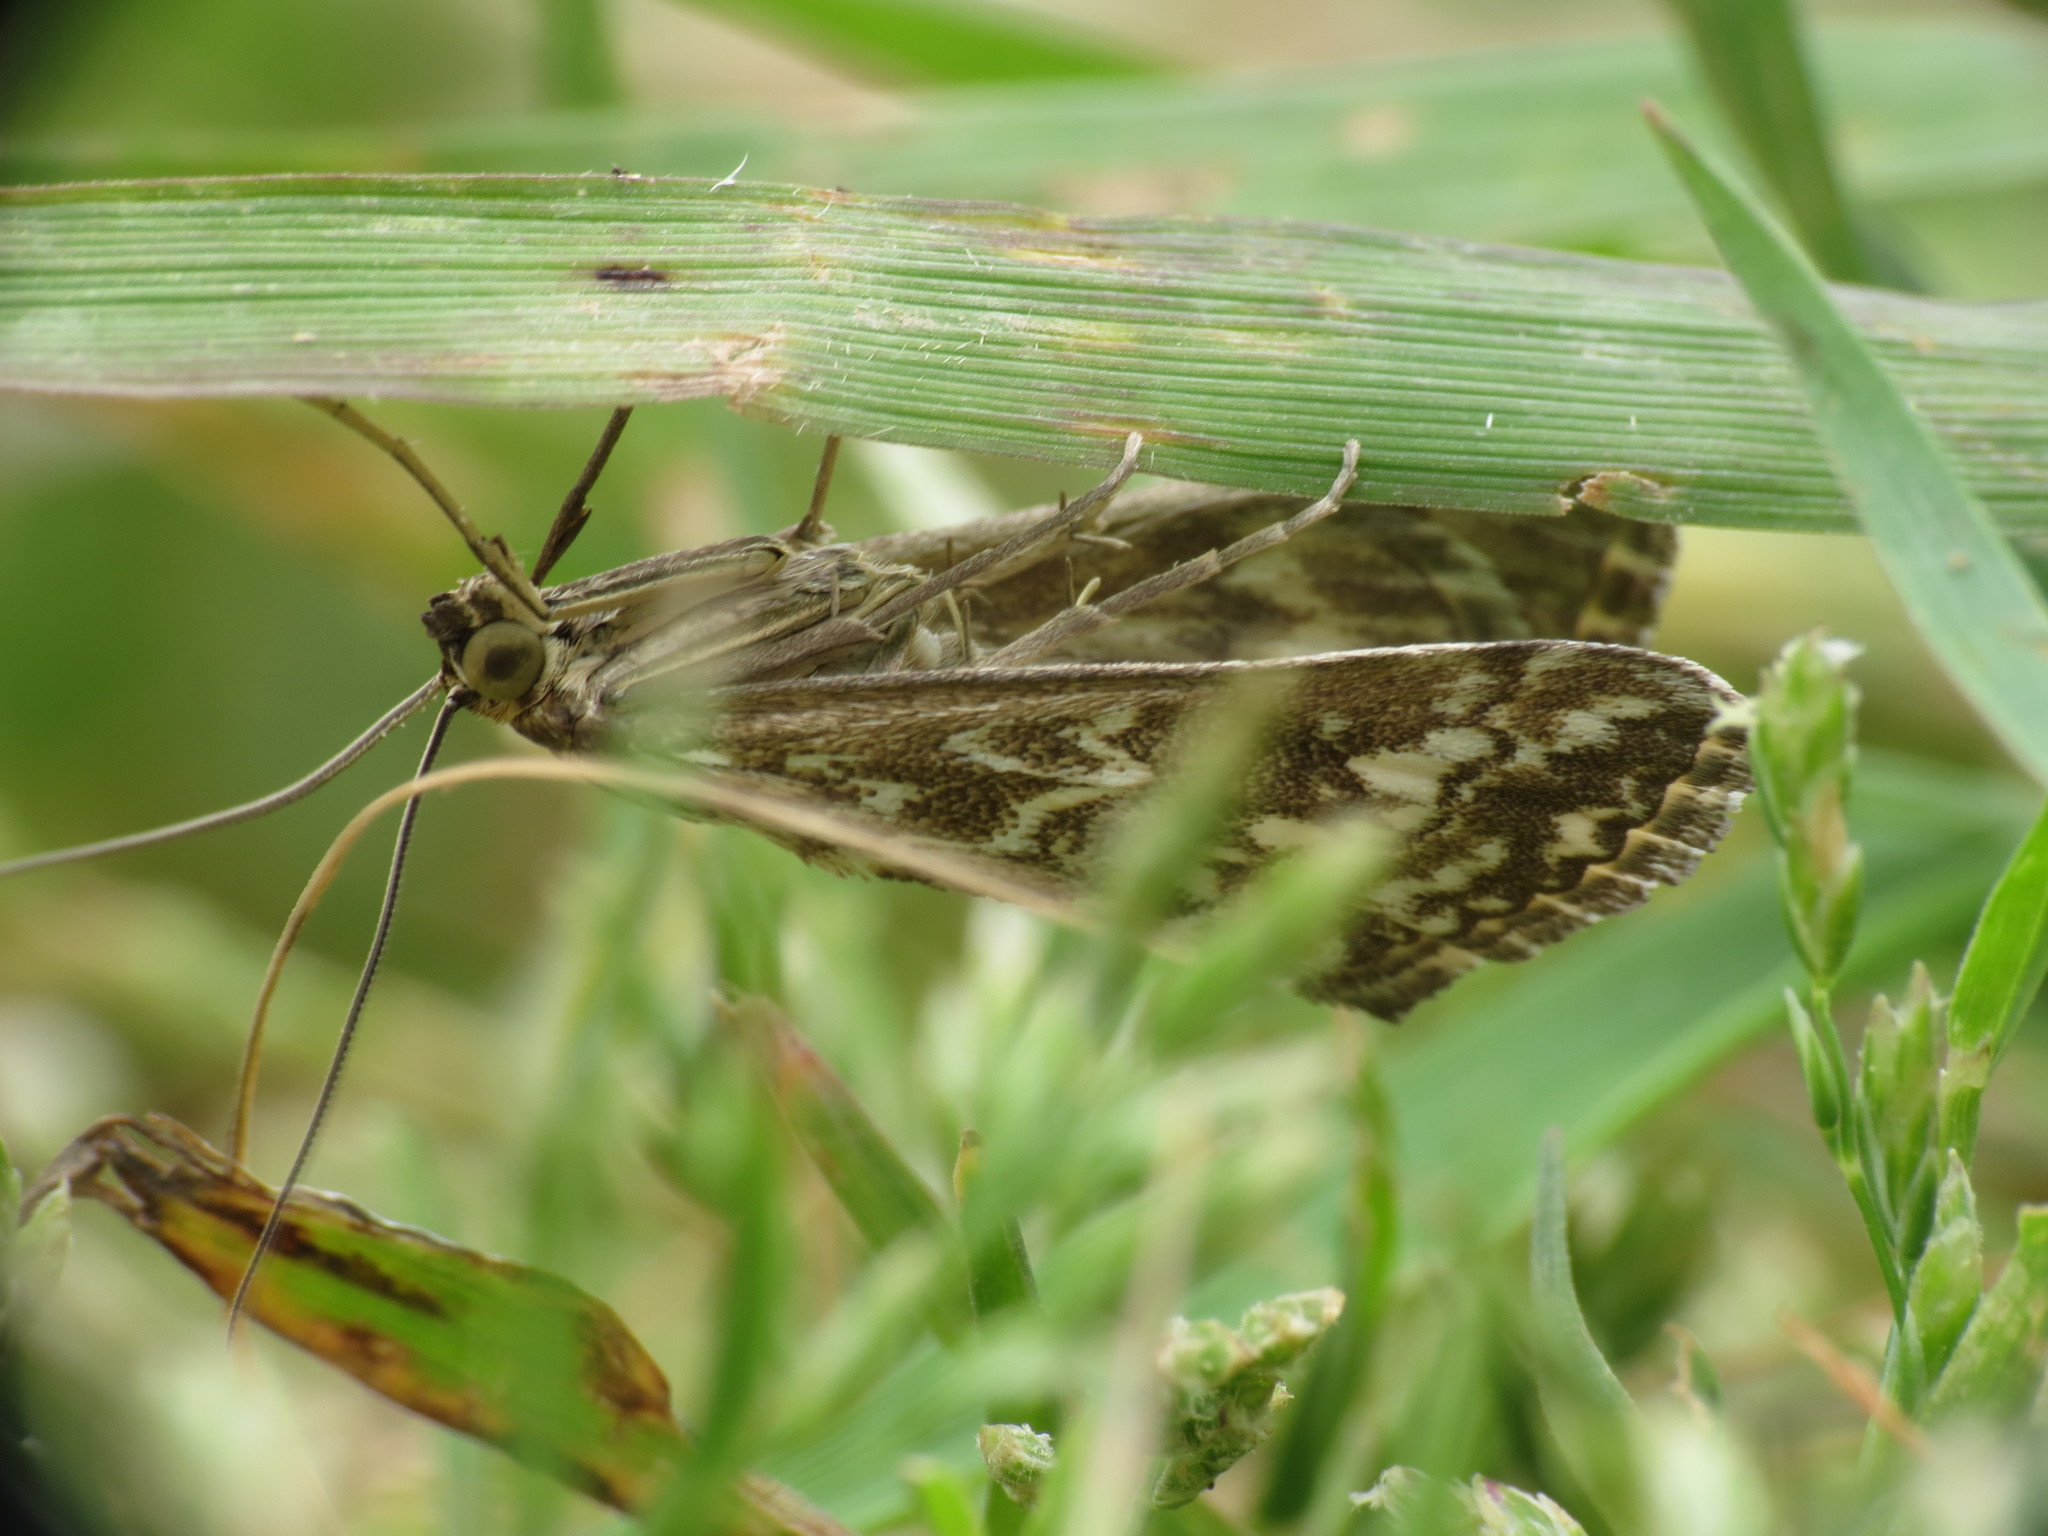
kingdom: Animalia
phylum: Arthropoda
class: Insecta
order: Lepidoptera
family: Crambidae
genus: Evergestis
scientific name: Evergestis frumentalis
